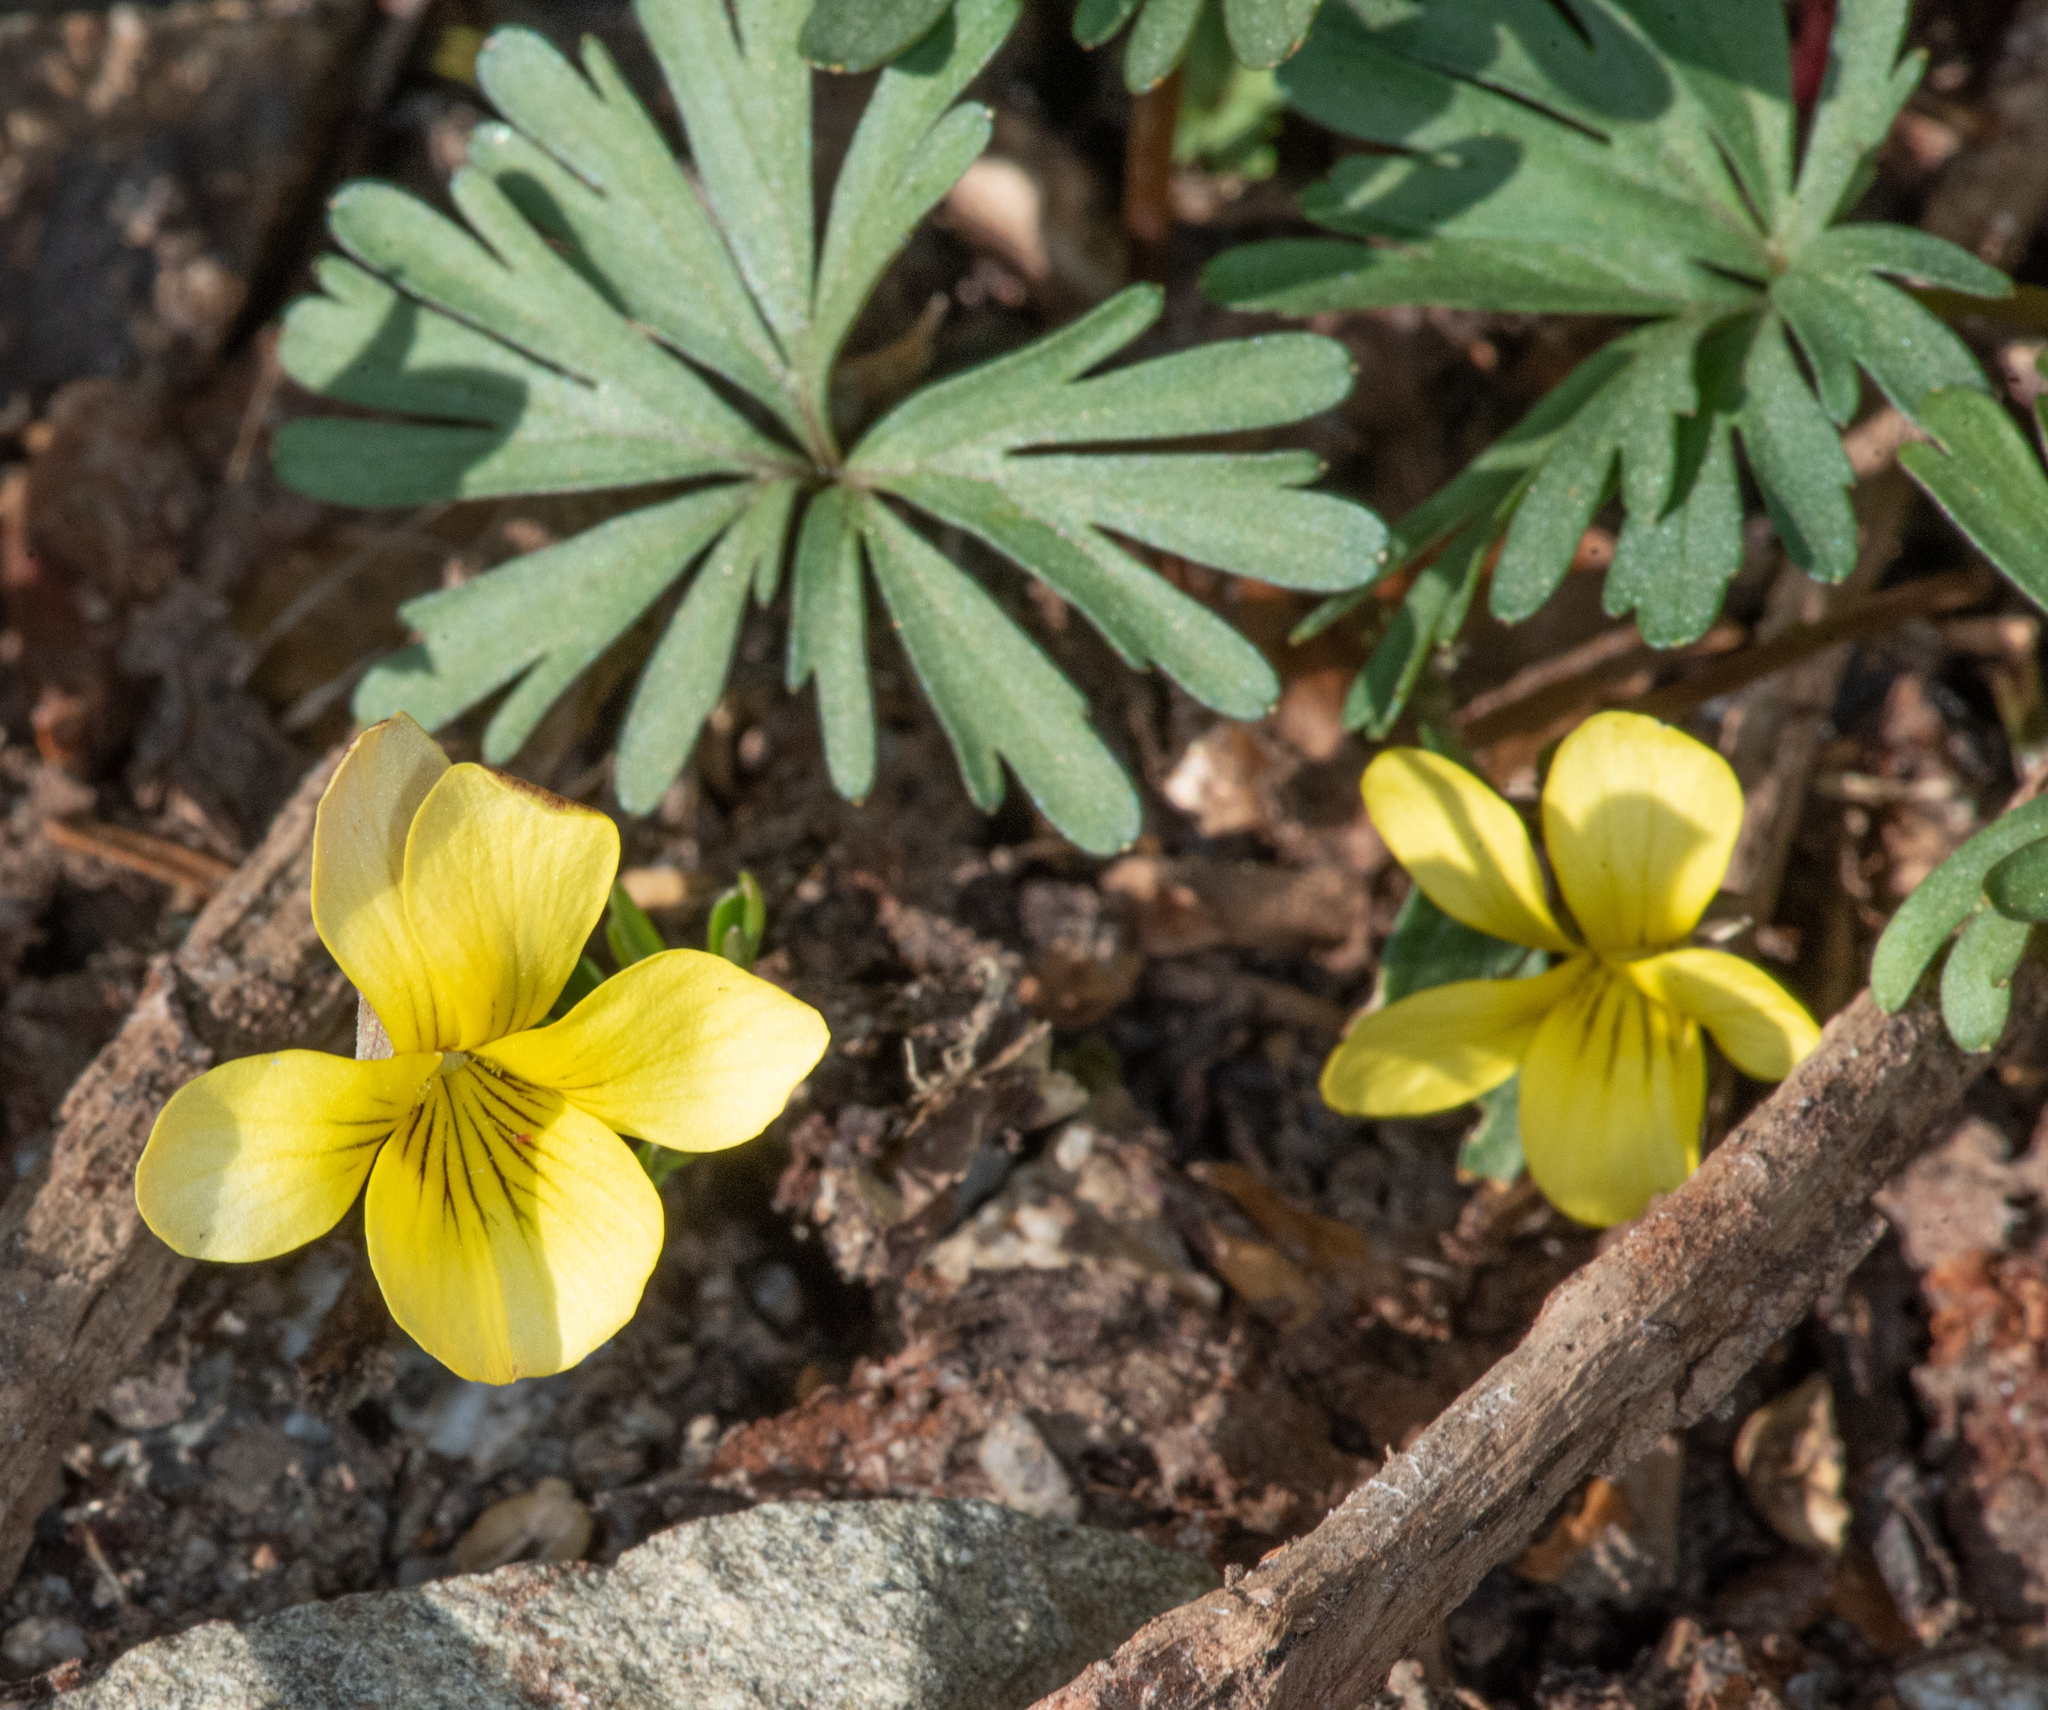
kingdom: Plantae
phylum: Tracheophyta
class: Magnoliopsida
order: Malpighiales
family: Violaceae
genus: Viola
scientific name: Viola sheltonii
